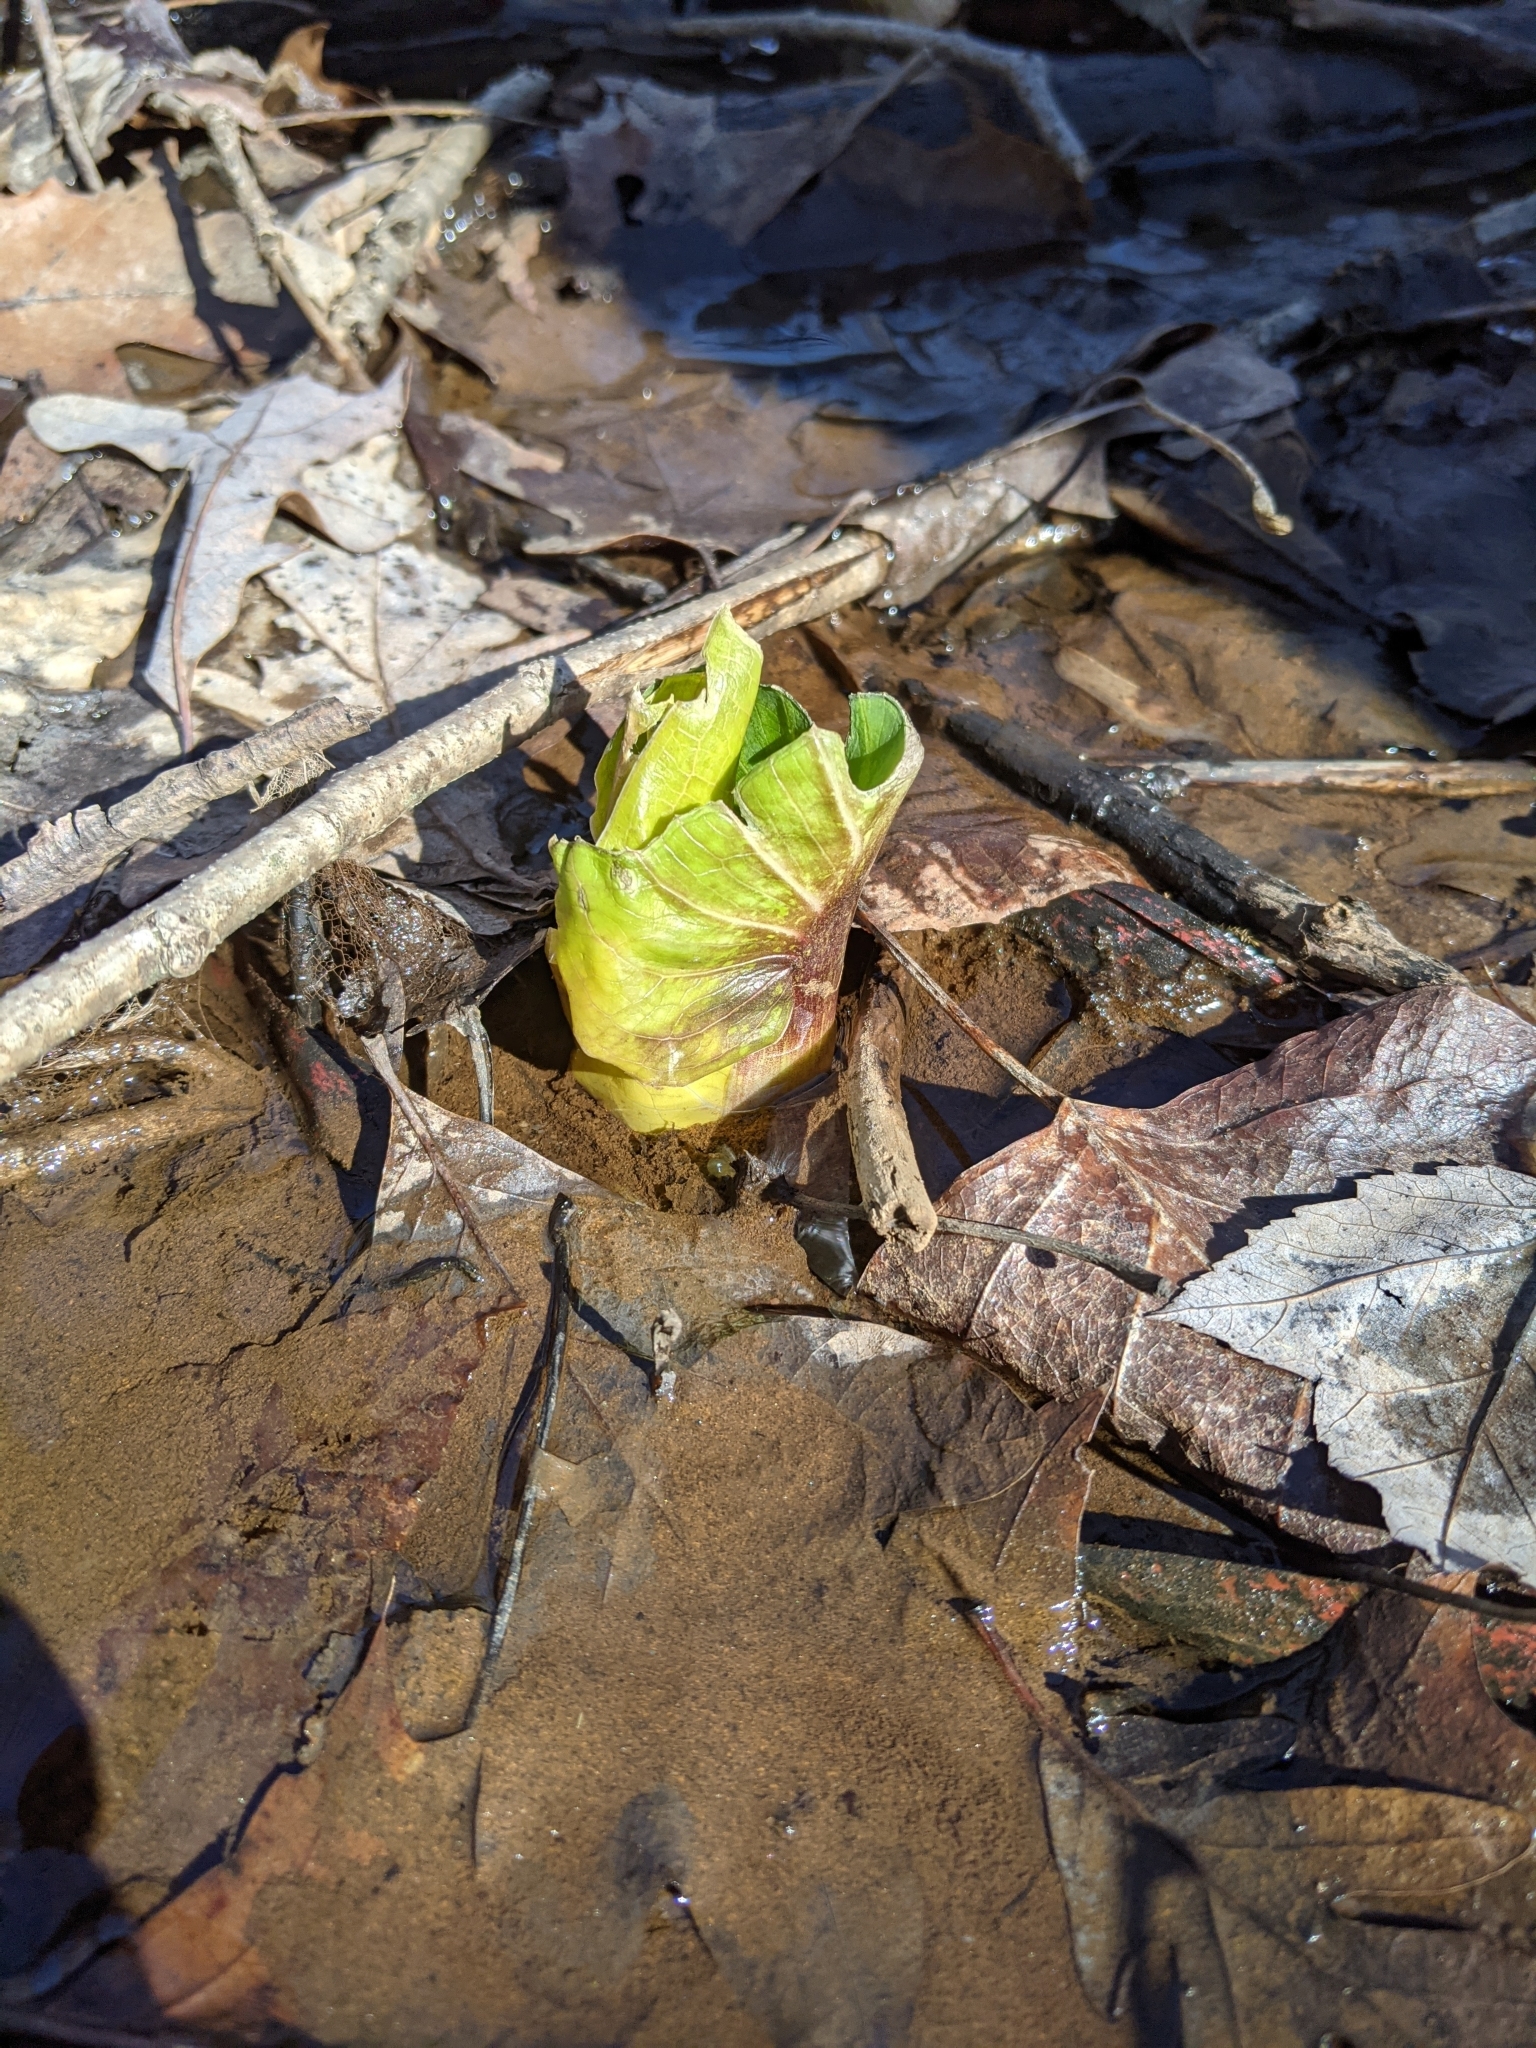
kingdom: Plantae
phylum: Tracheophyta
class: Liliopsida
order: Alismatales
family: Araceae
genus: Symplocarpus
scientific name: Symplocarpus foetidus
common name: Eastern skunk cabbage
